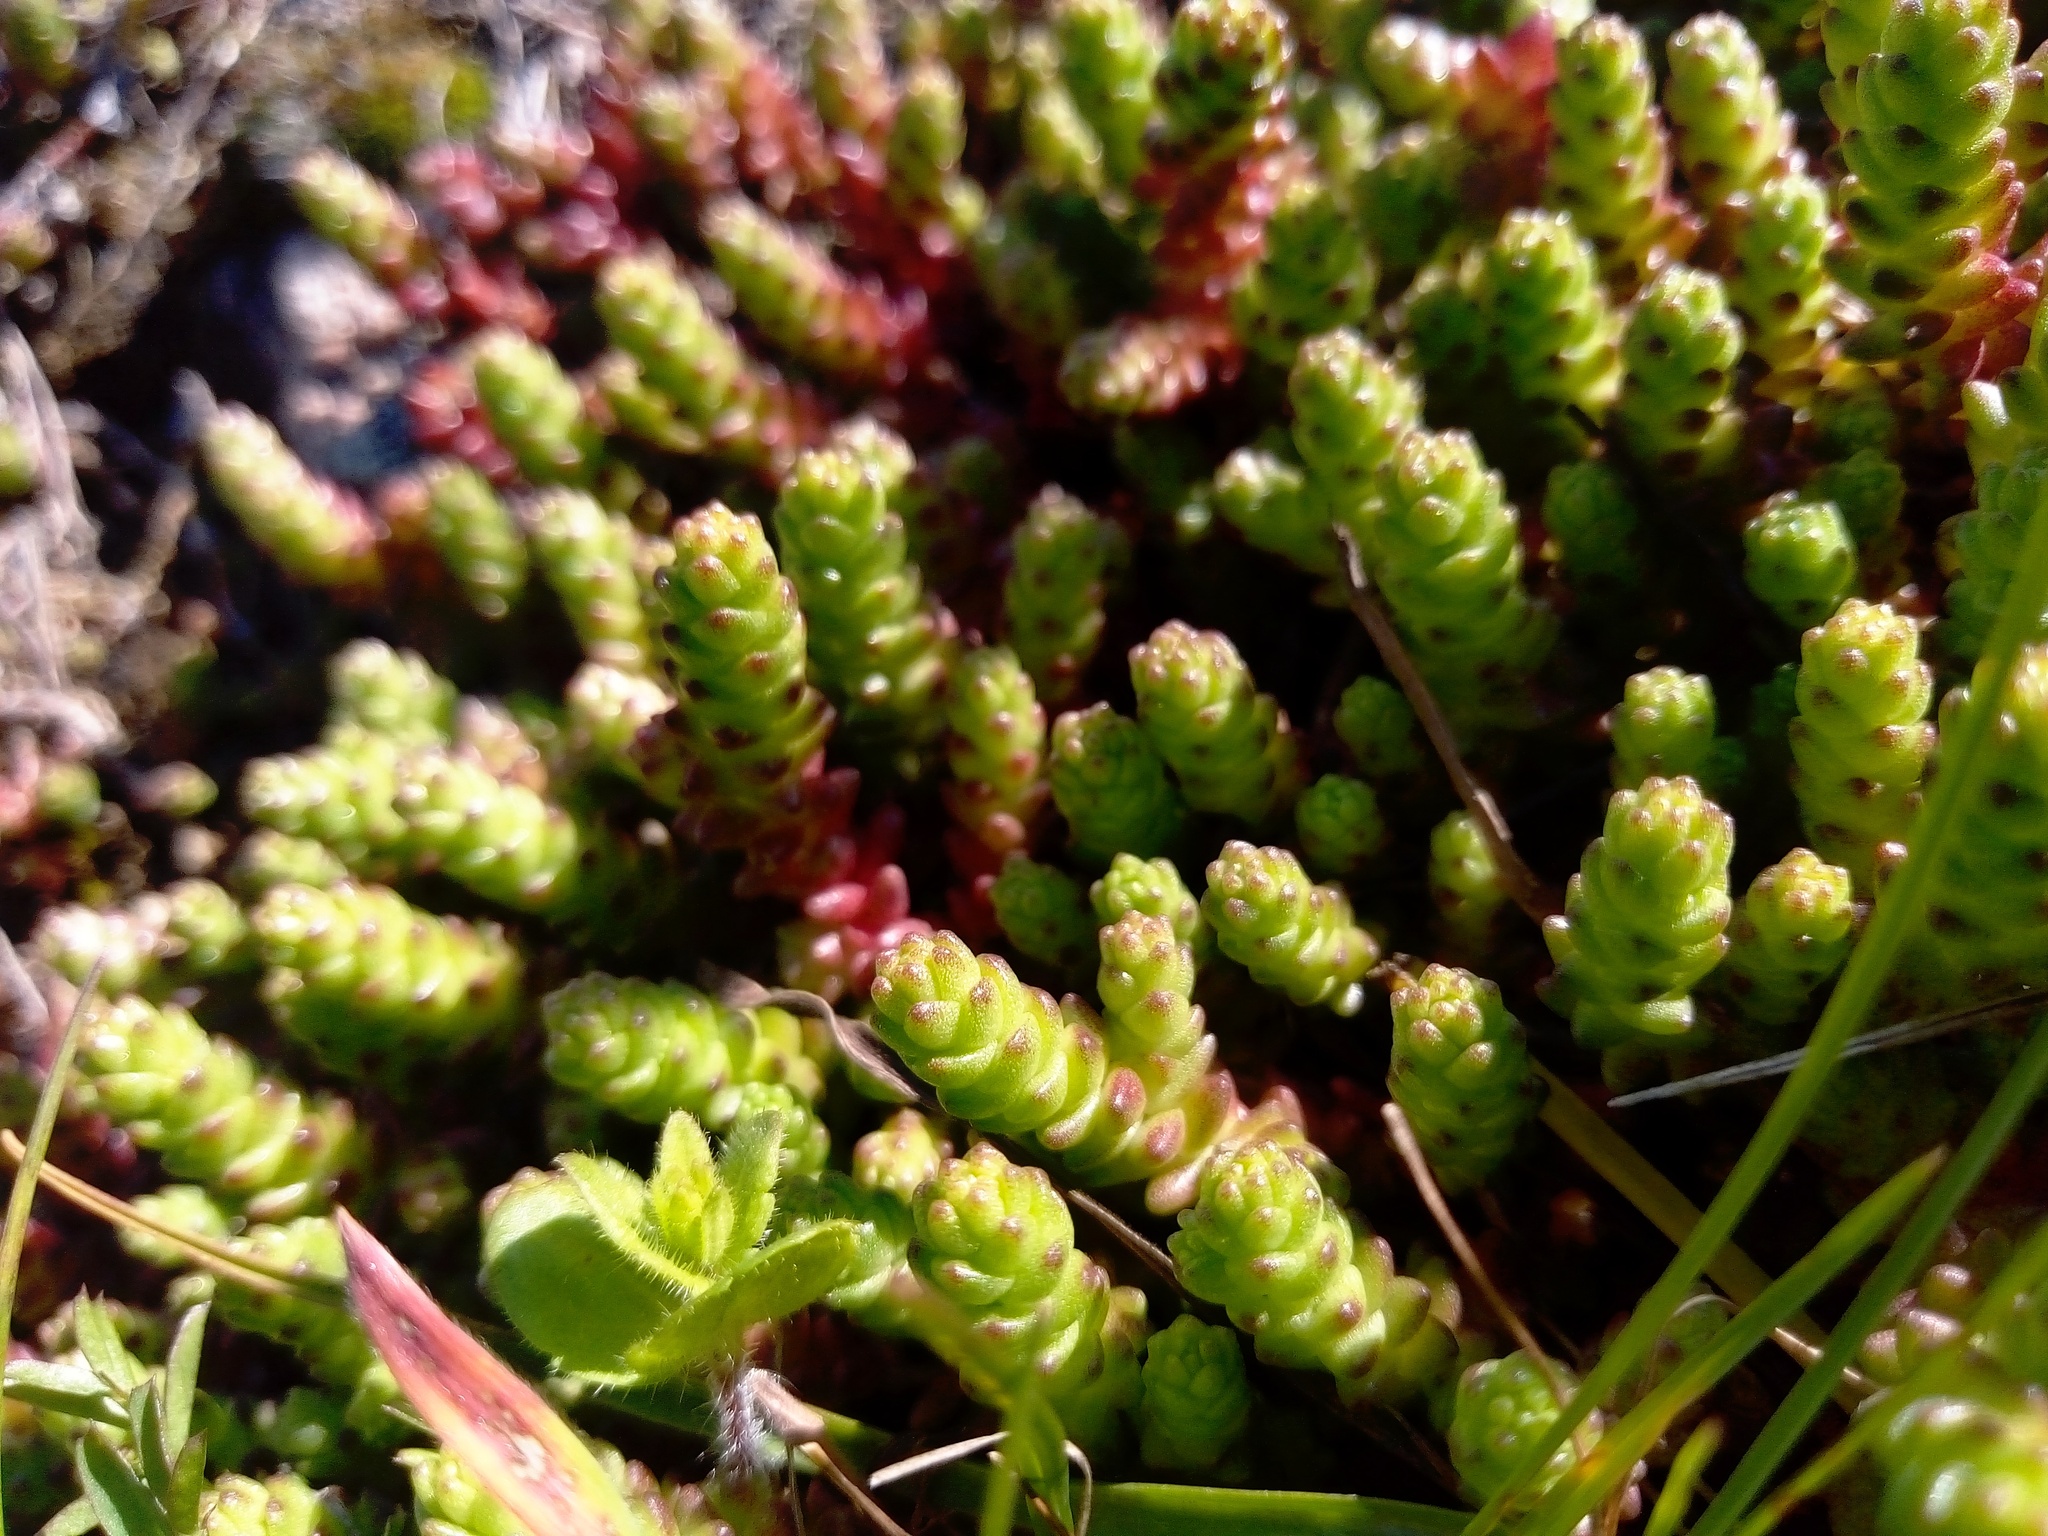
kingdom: Plantae
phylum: Tracheophyta
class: Magnoliopsida
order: Saxifragales
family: Crassulaceae
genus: Sedum
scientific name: Sedum acre
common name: Biting stonecrop
